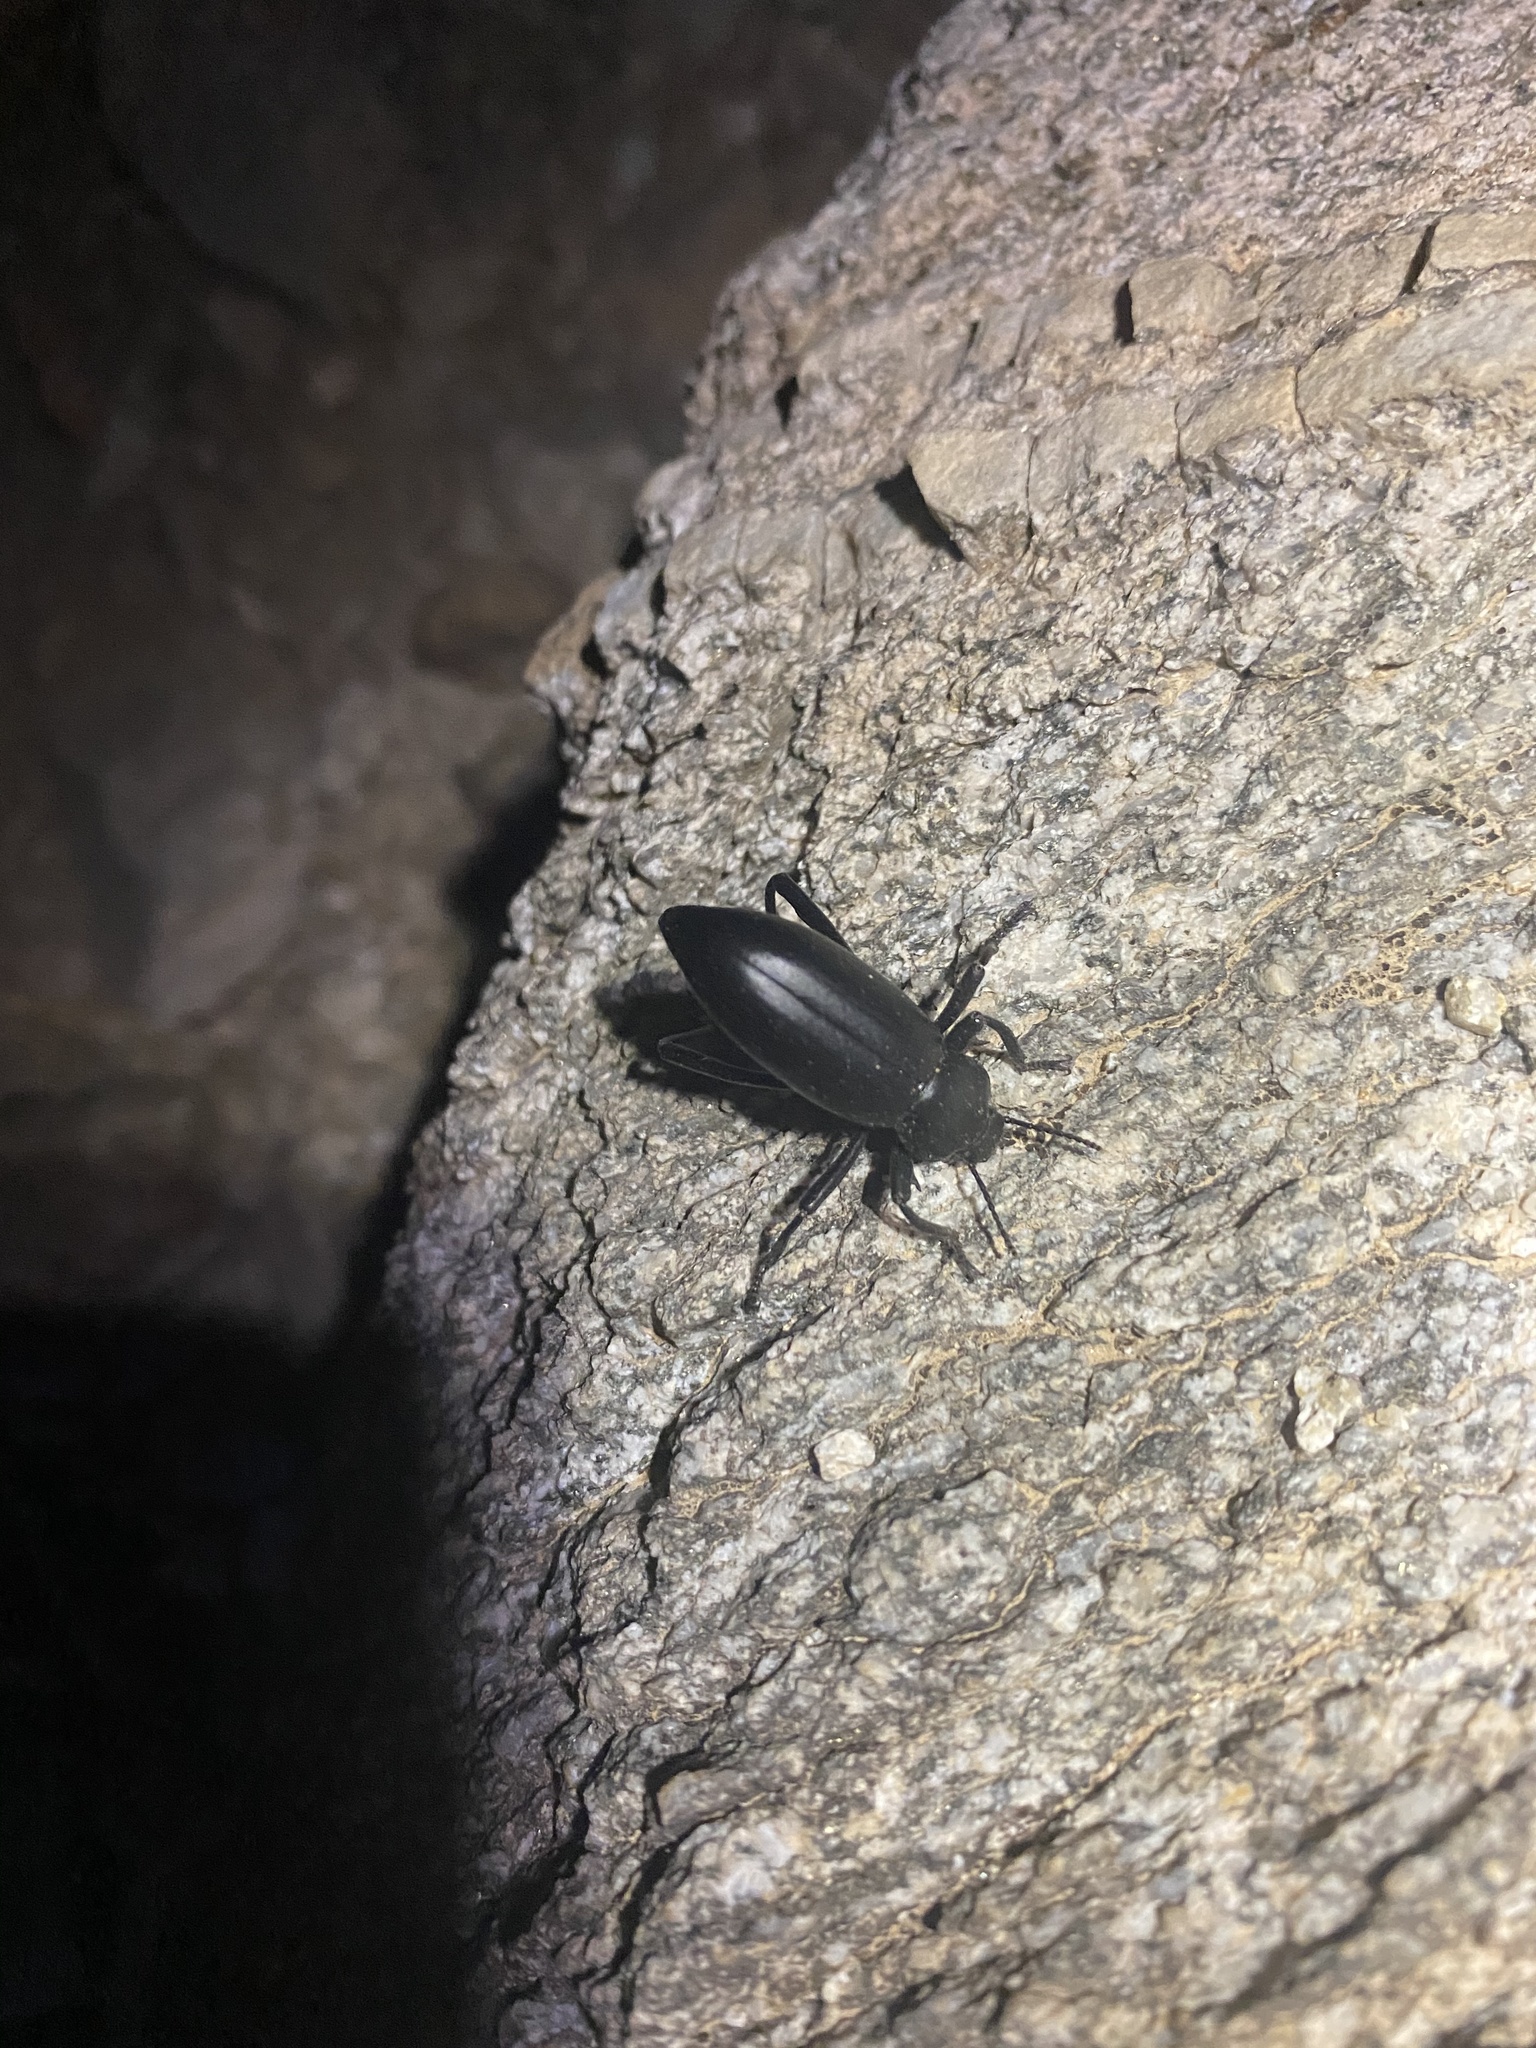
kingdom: Animalia
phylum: Arthropoda
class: Insecta
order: Coleoptera
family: Tenebrionidae
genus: Eleodes
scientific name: Eleodes armata
